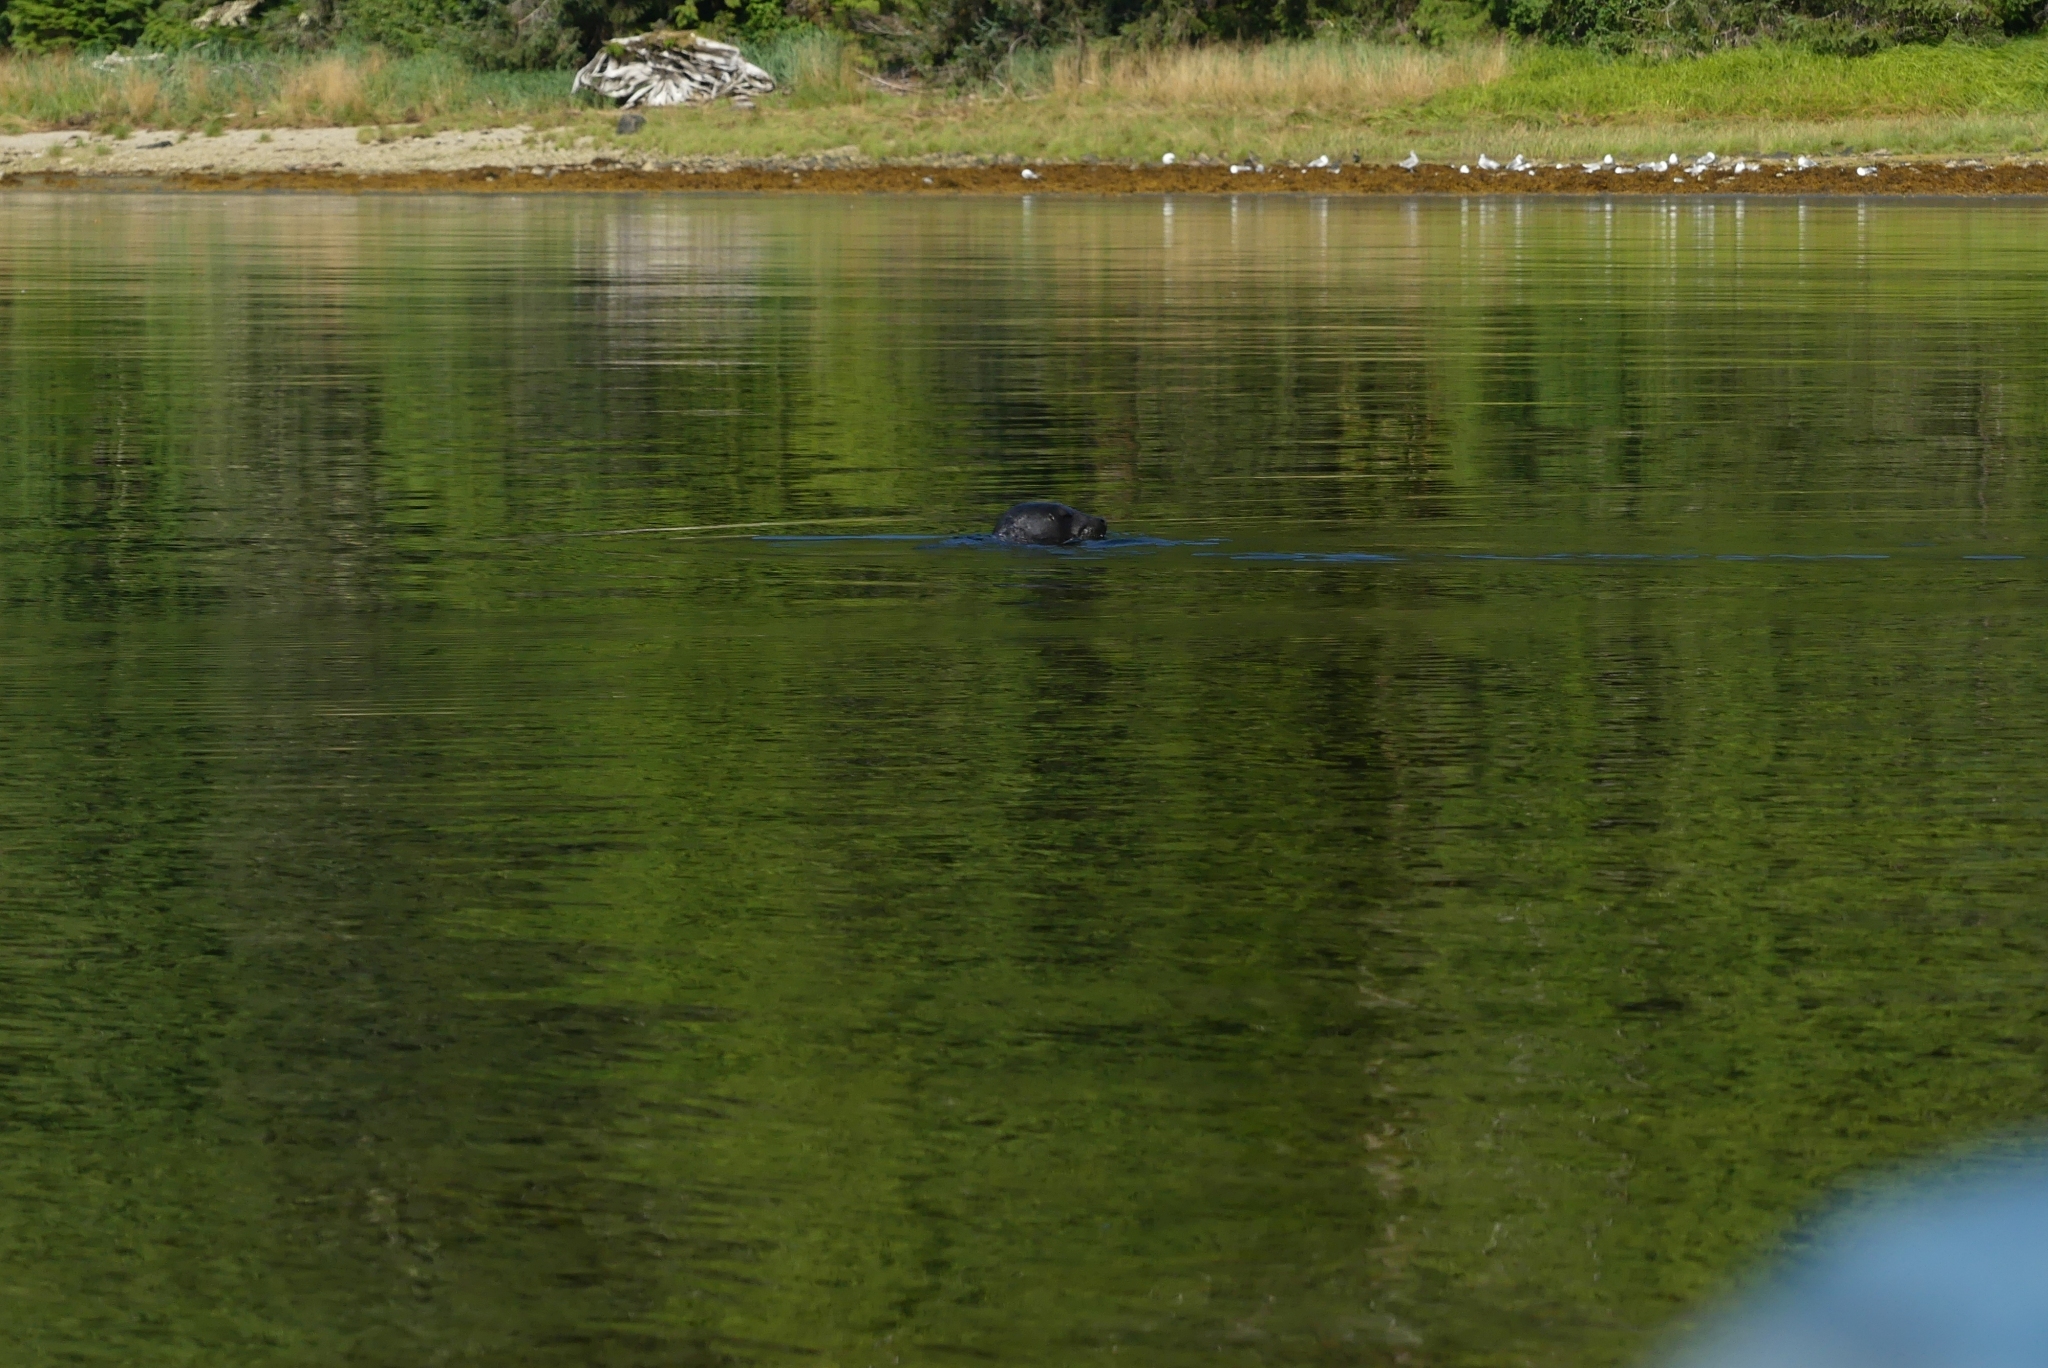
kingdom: Animalia
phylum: Chordata
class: Mammalia
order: Carnivora
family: Phocidae
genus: Phoca
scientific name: Phoca vitulina
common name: Harbor seal
